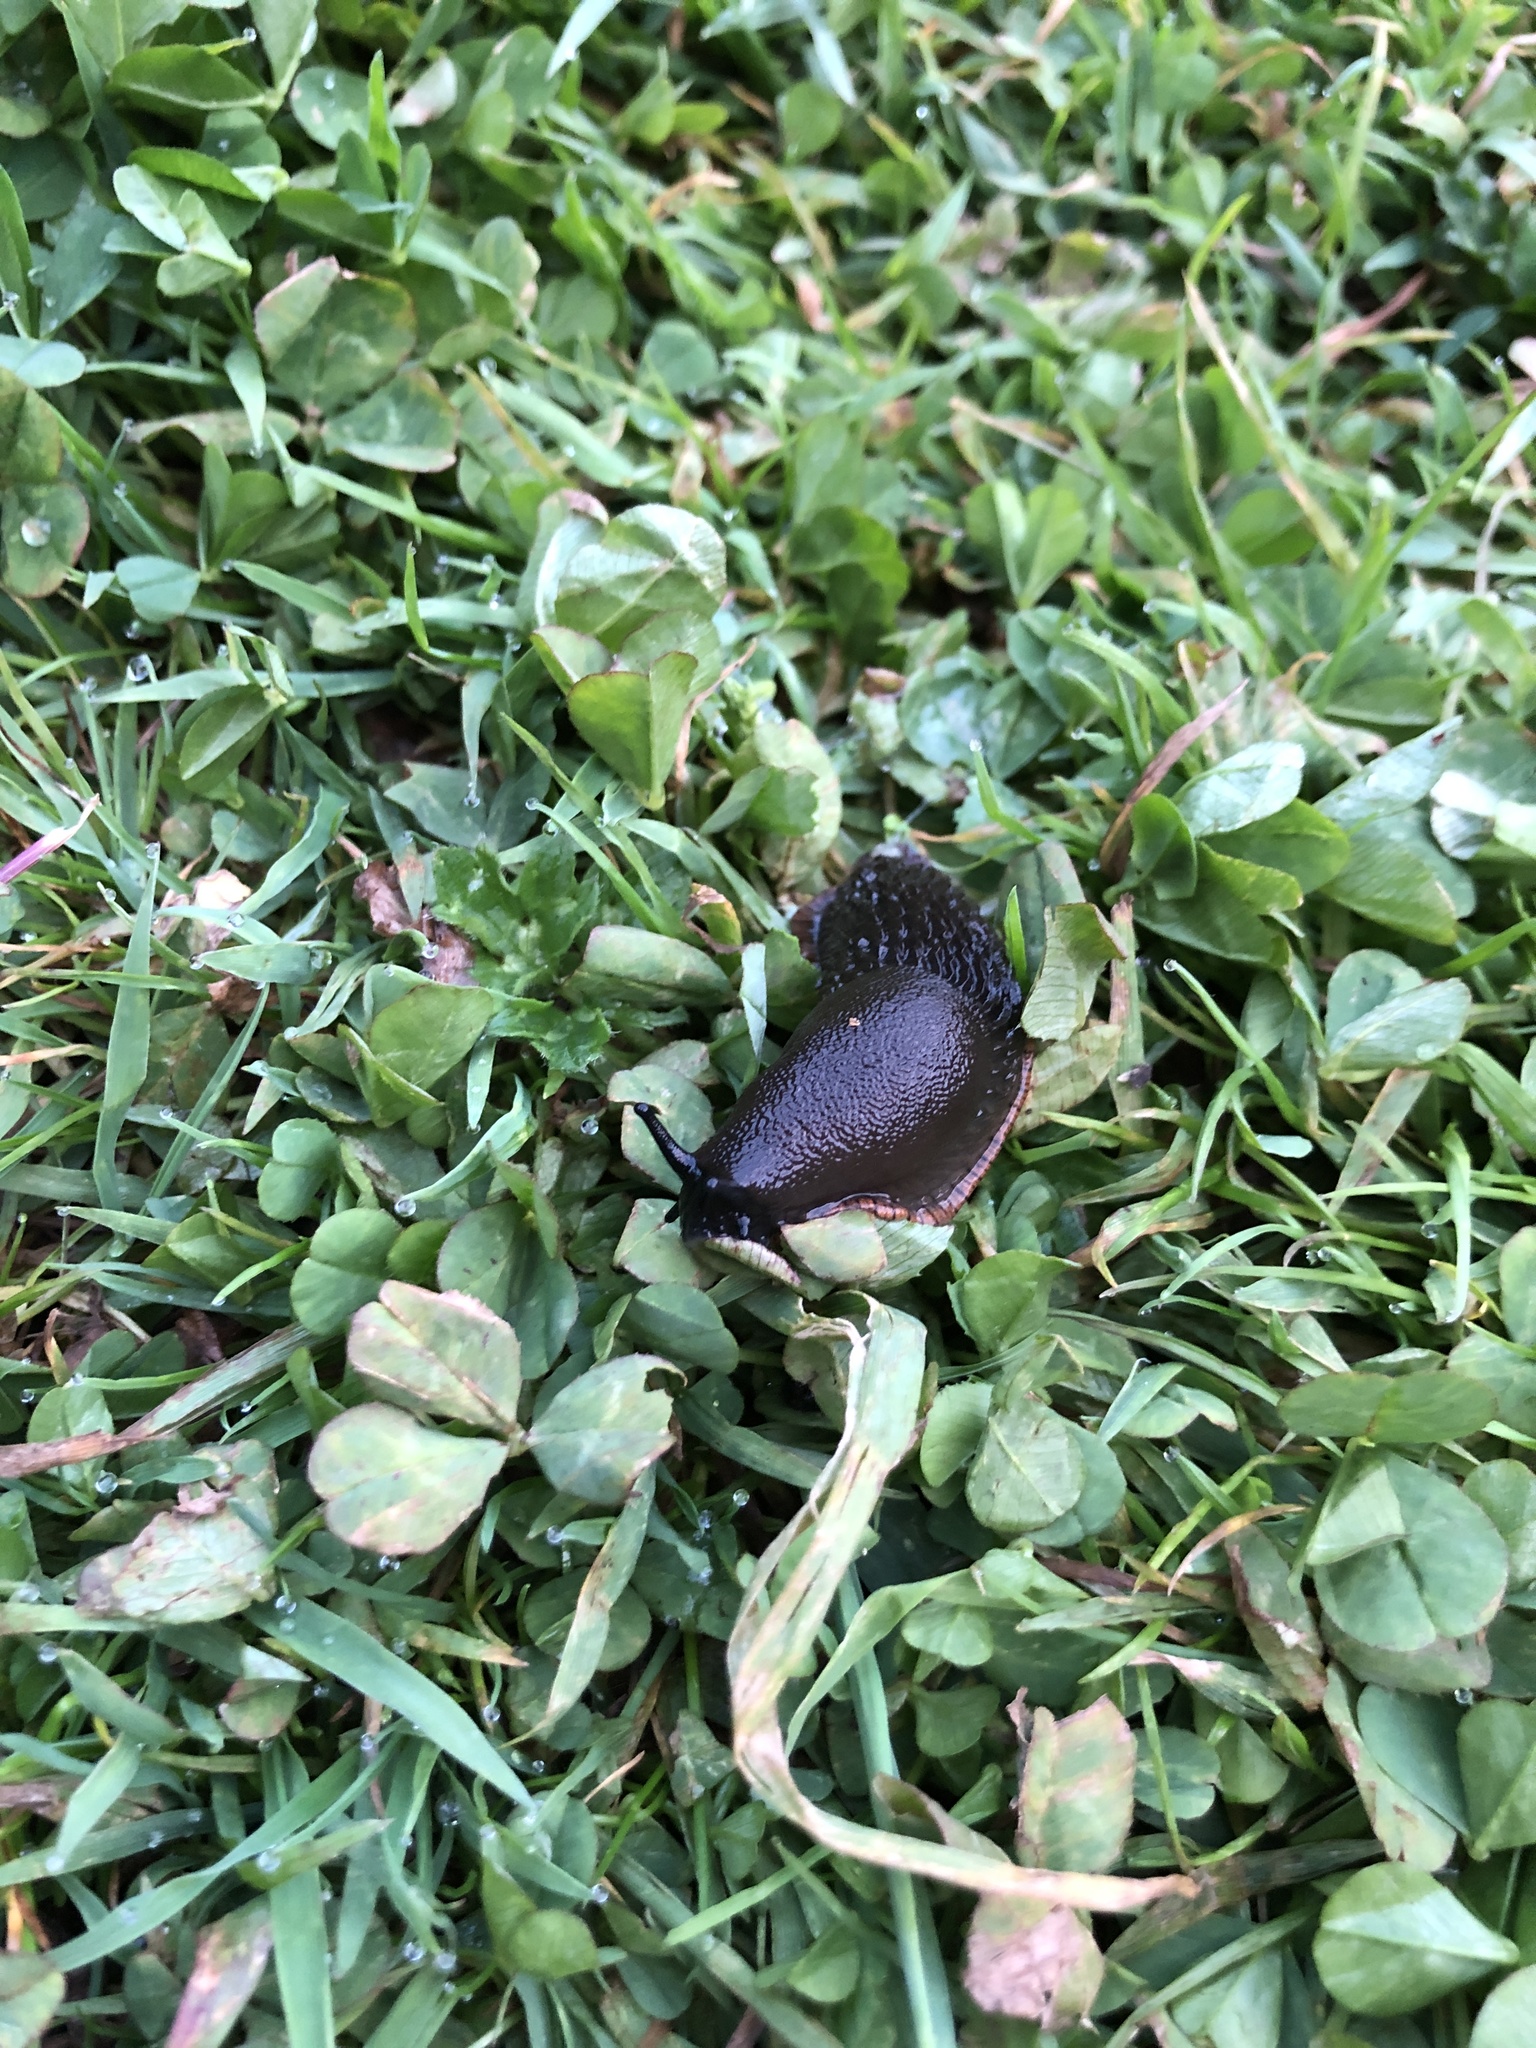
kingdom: Animalia
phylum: Mollusca
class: Gastropoda
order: Stylommatophora
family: Arionidae
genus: Arion
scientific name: Arion
